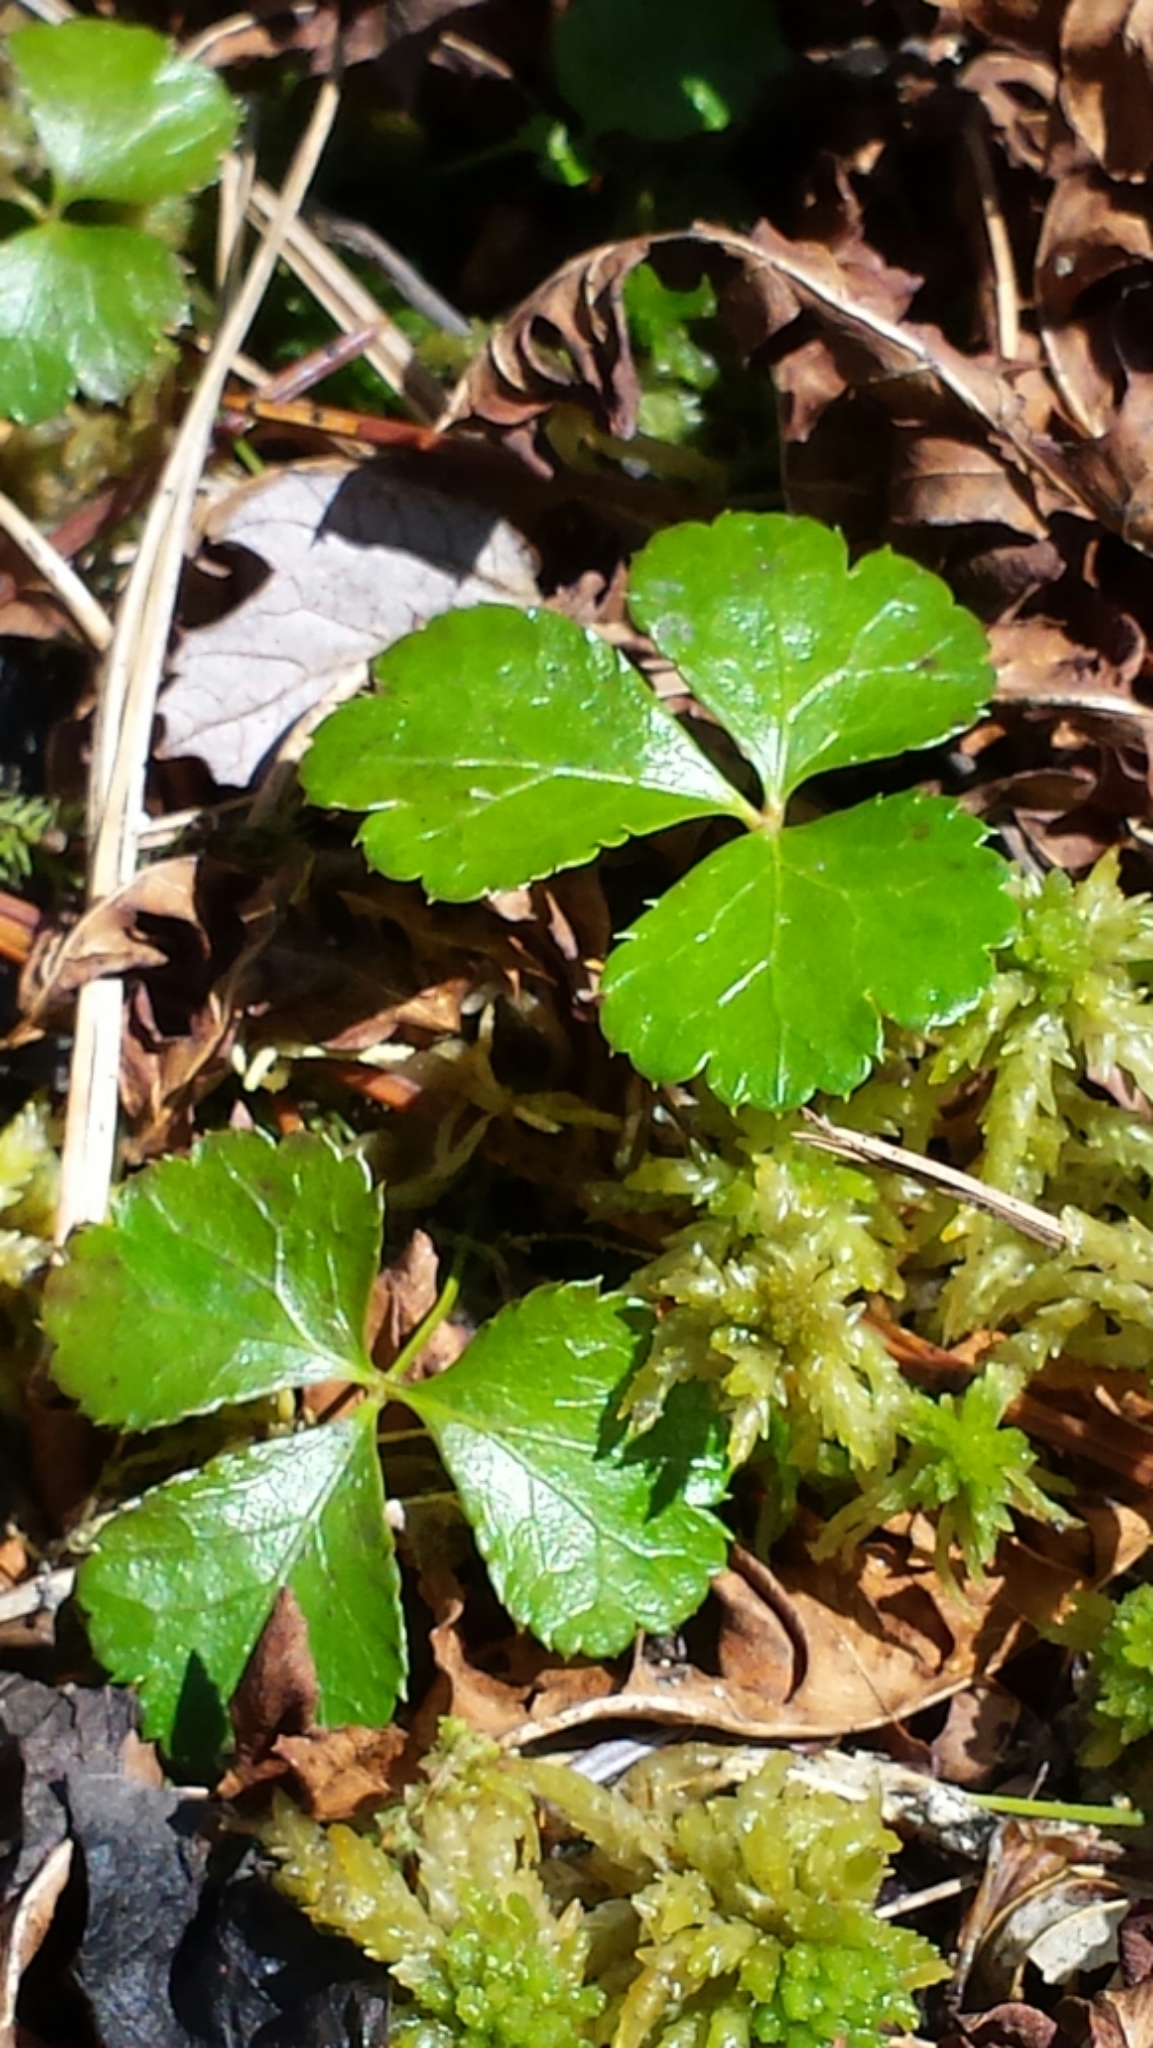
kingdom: Plantae
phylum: Tracheophyta
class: Magnoliopsida
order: Ranunculales
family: Ranunculaceae
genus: Coptis
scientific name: Coptis trifolia
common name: Canker-root
